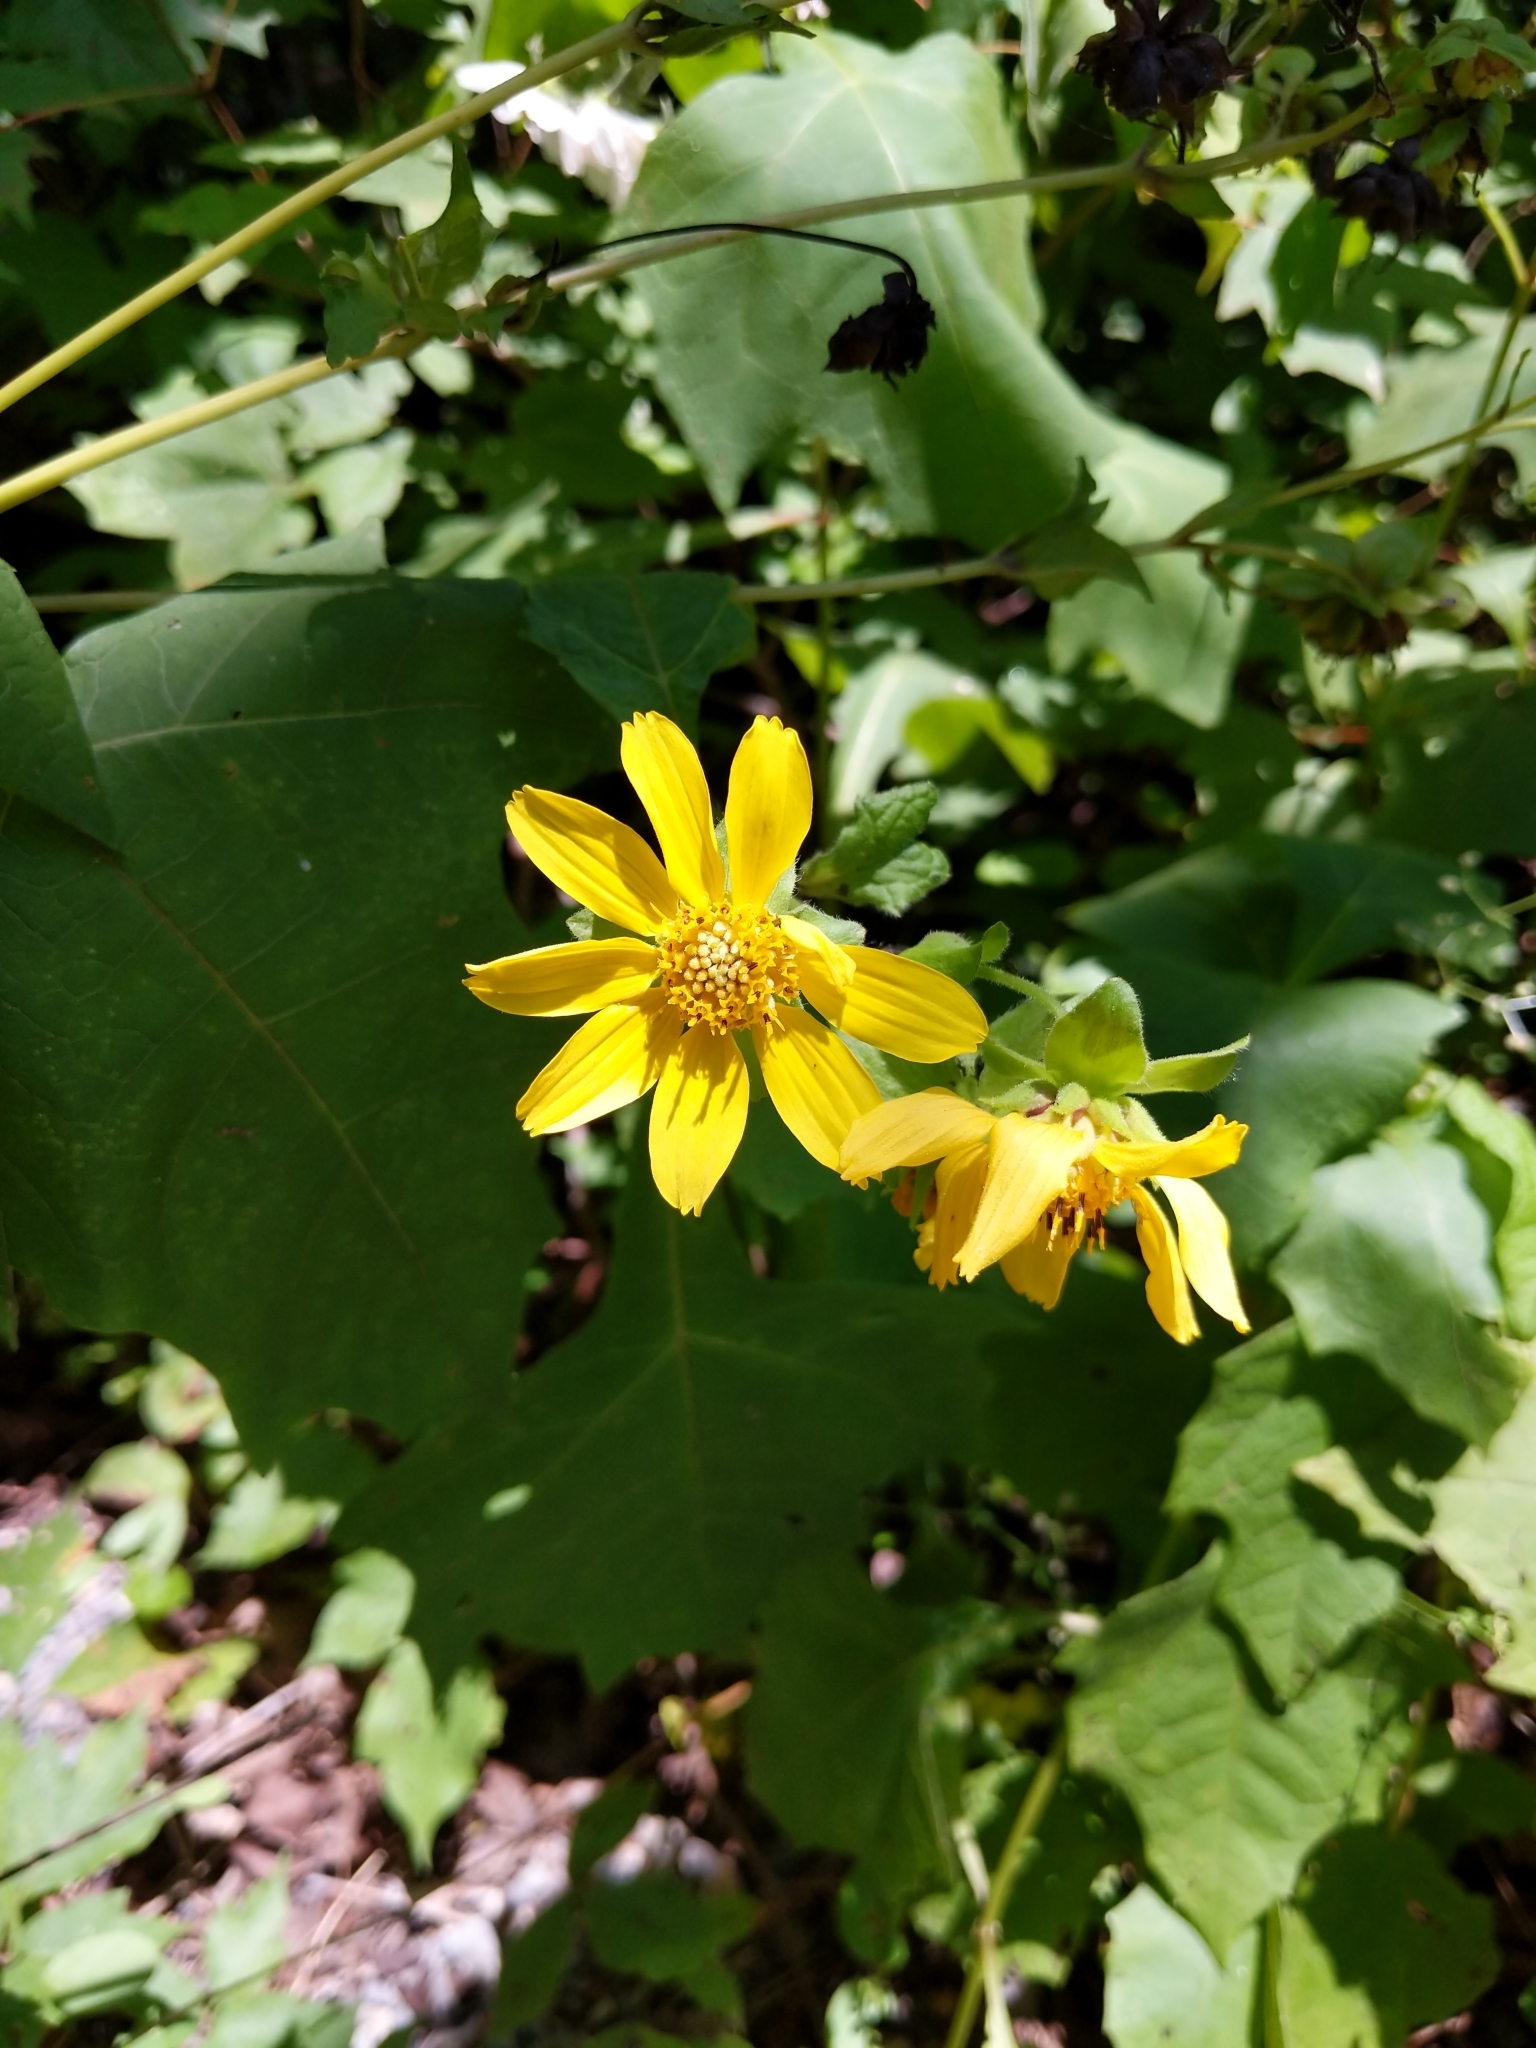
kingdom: Plantae
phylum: Tracheophyta
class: Magnoliopsida
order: Asterales
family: Asteraceae
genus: Smallanthus
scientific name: Smallanthus uvedalia
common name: Bear's-foot
